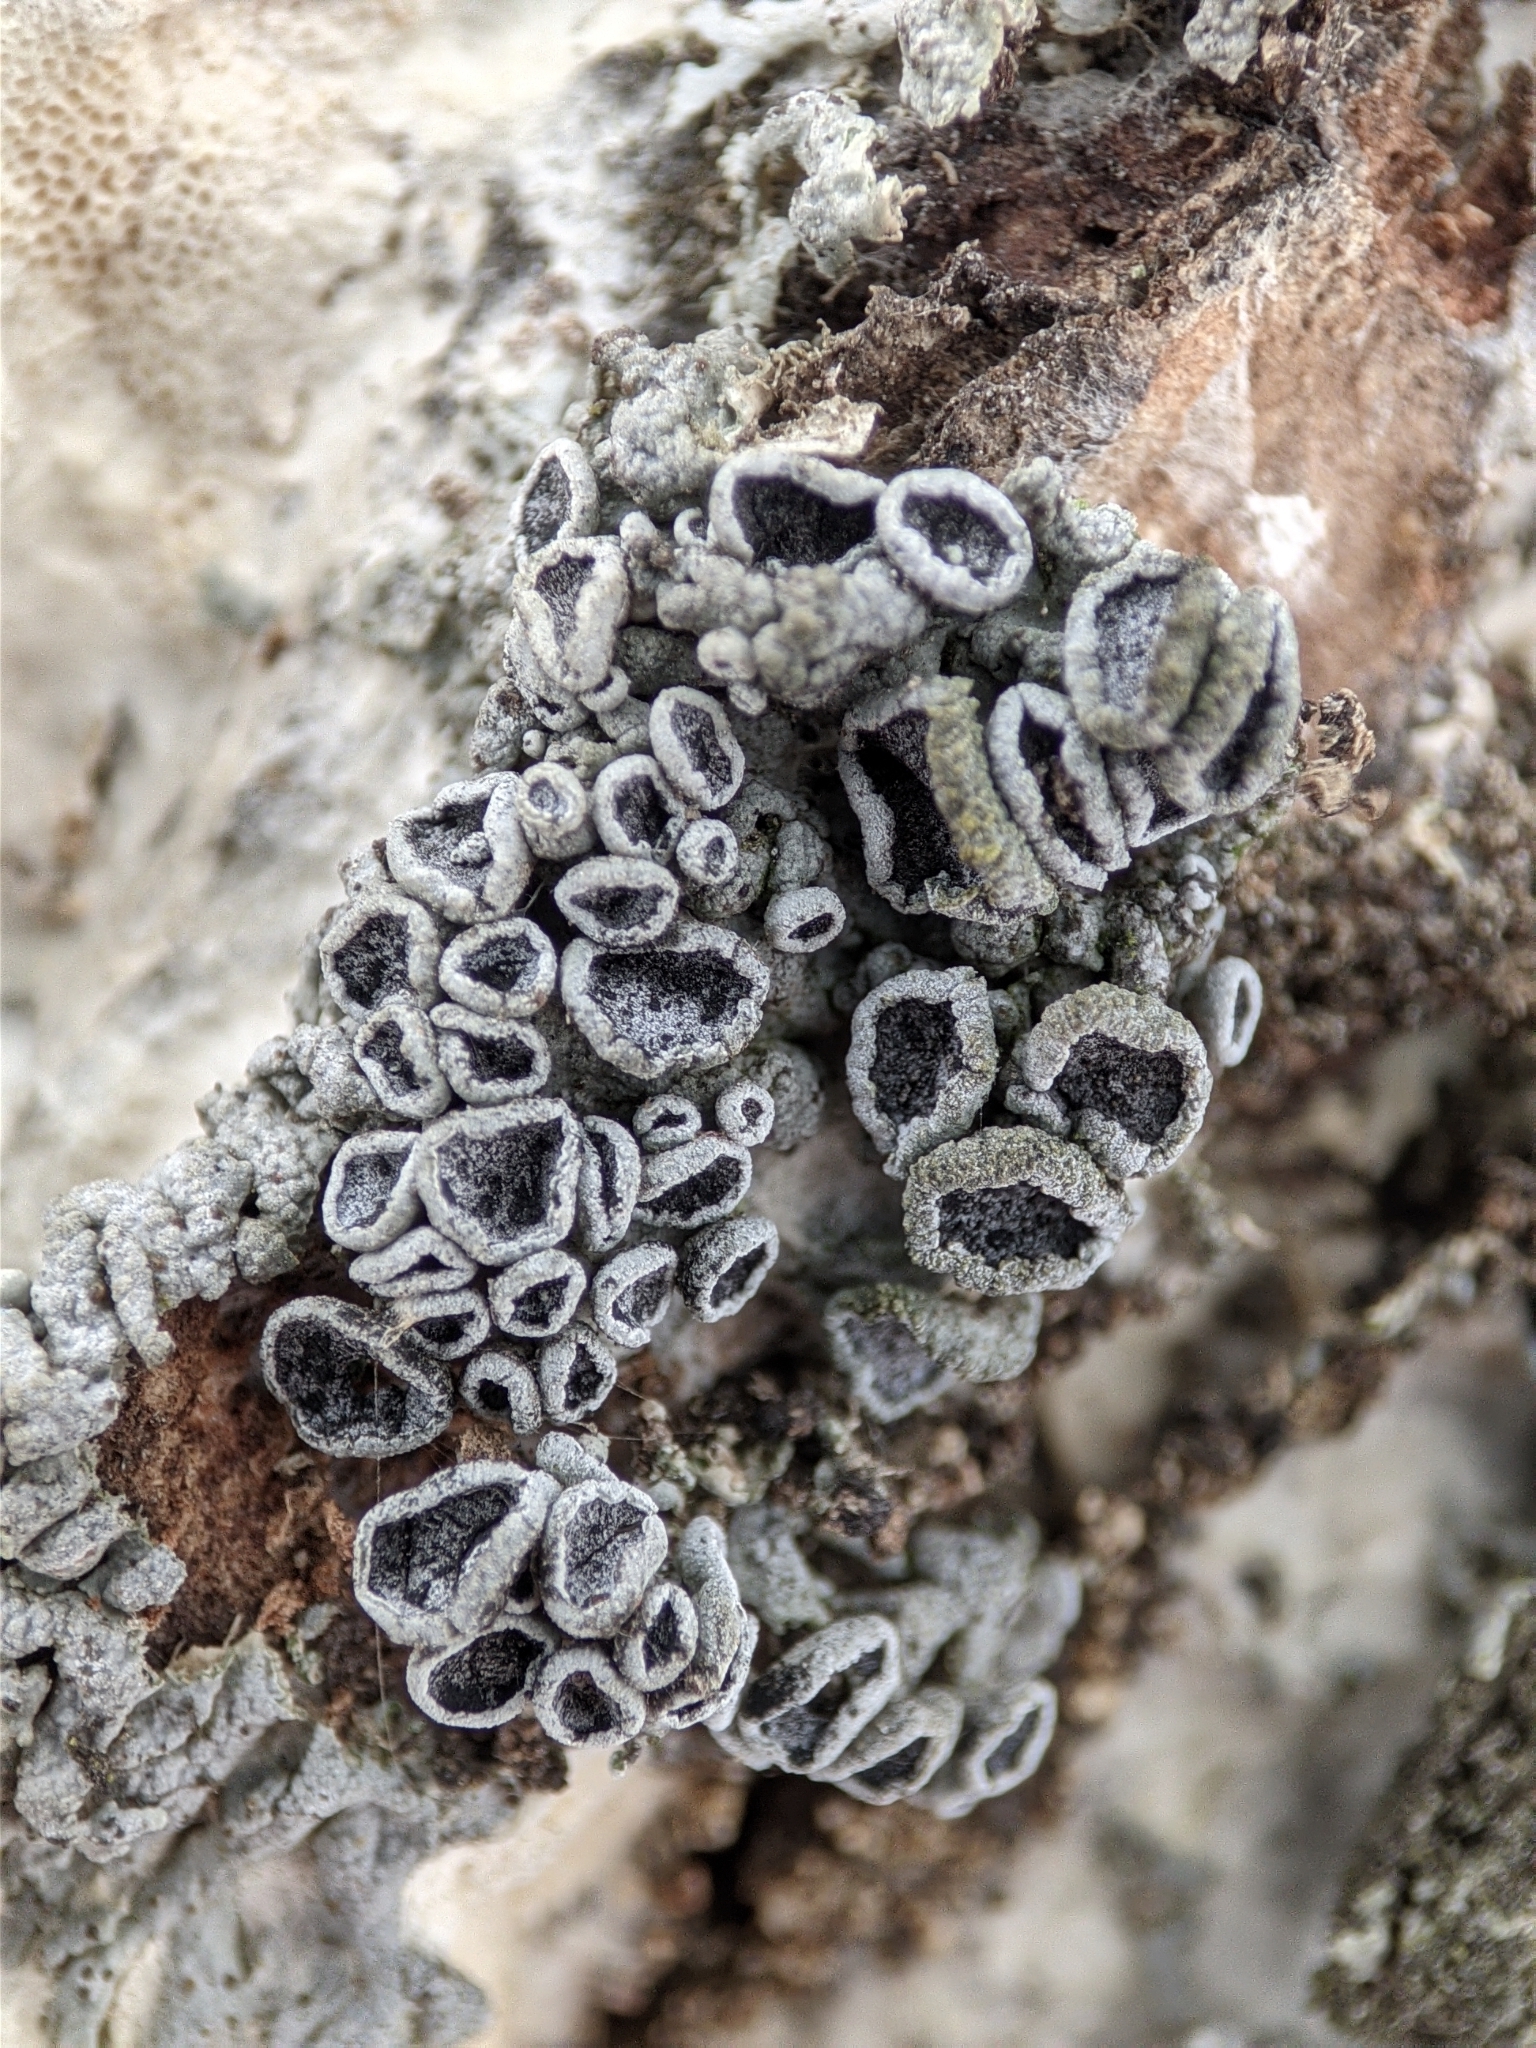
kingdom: Fungi
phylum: Ascomycota
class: Lecanoromycetes
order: Caliciales
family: Physciaceae
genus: Physcia
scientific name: Physcia stellaris
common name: Star rosette lichen
